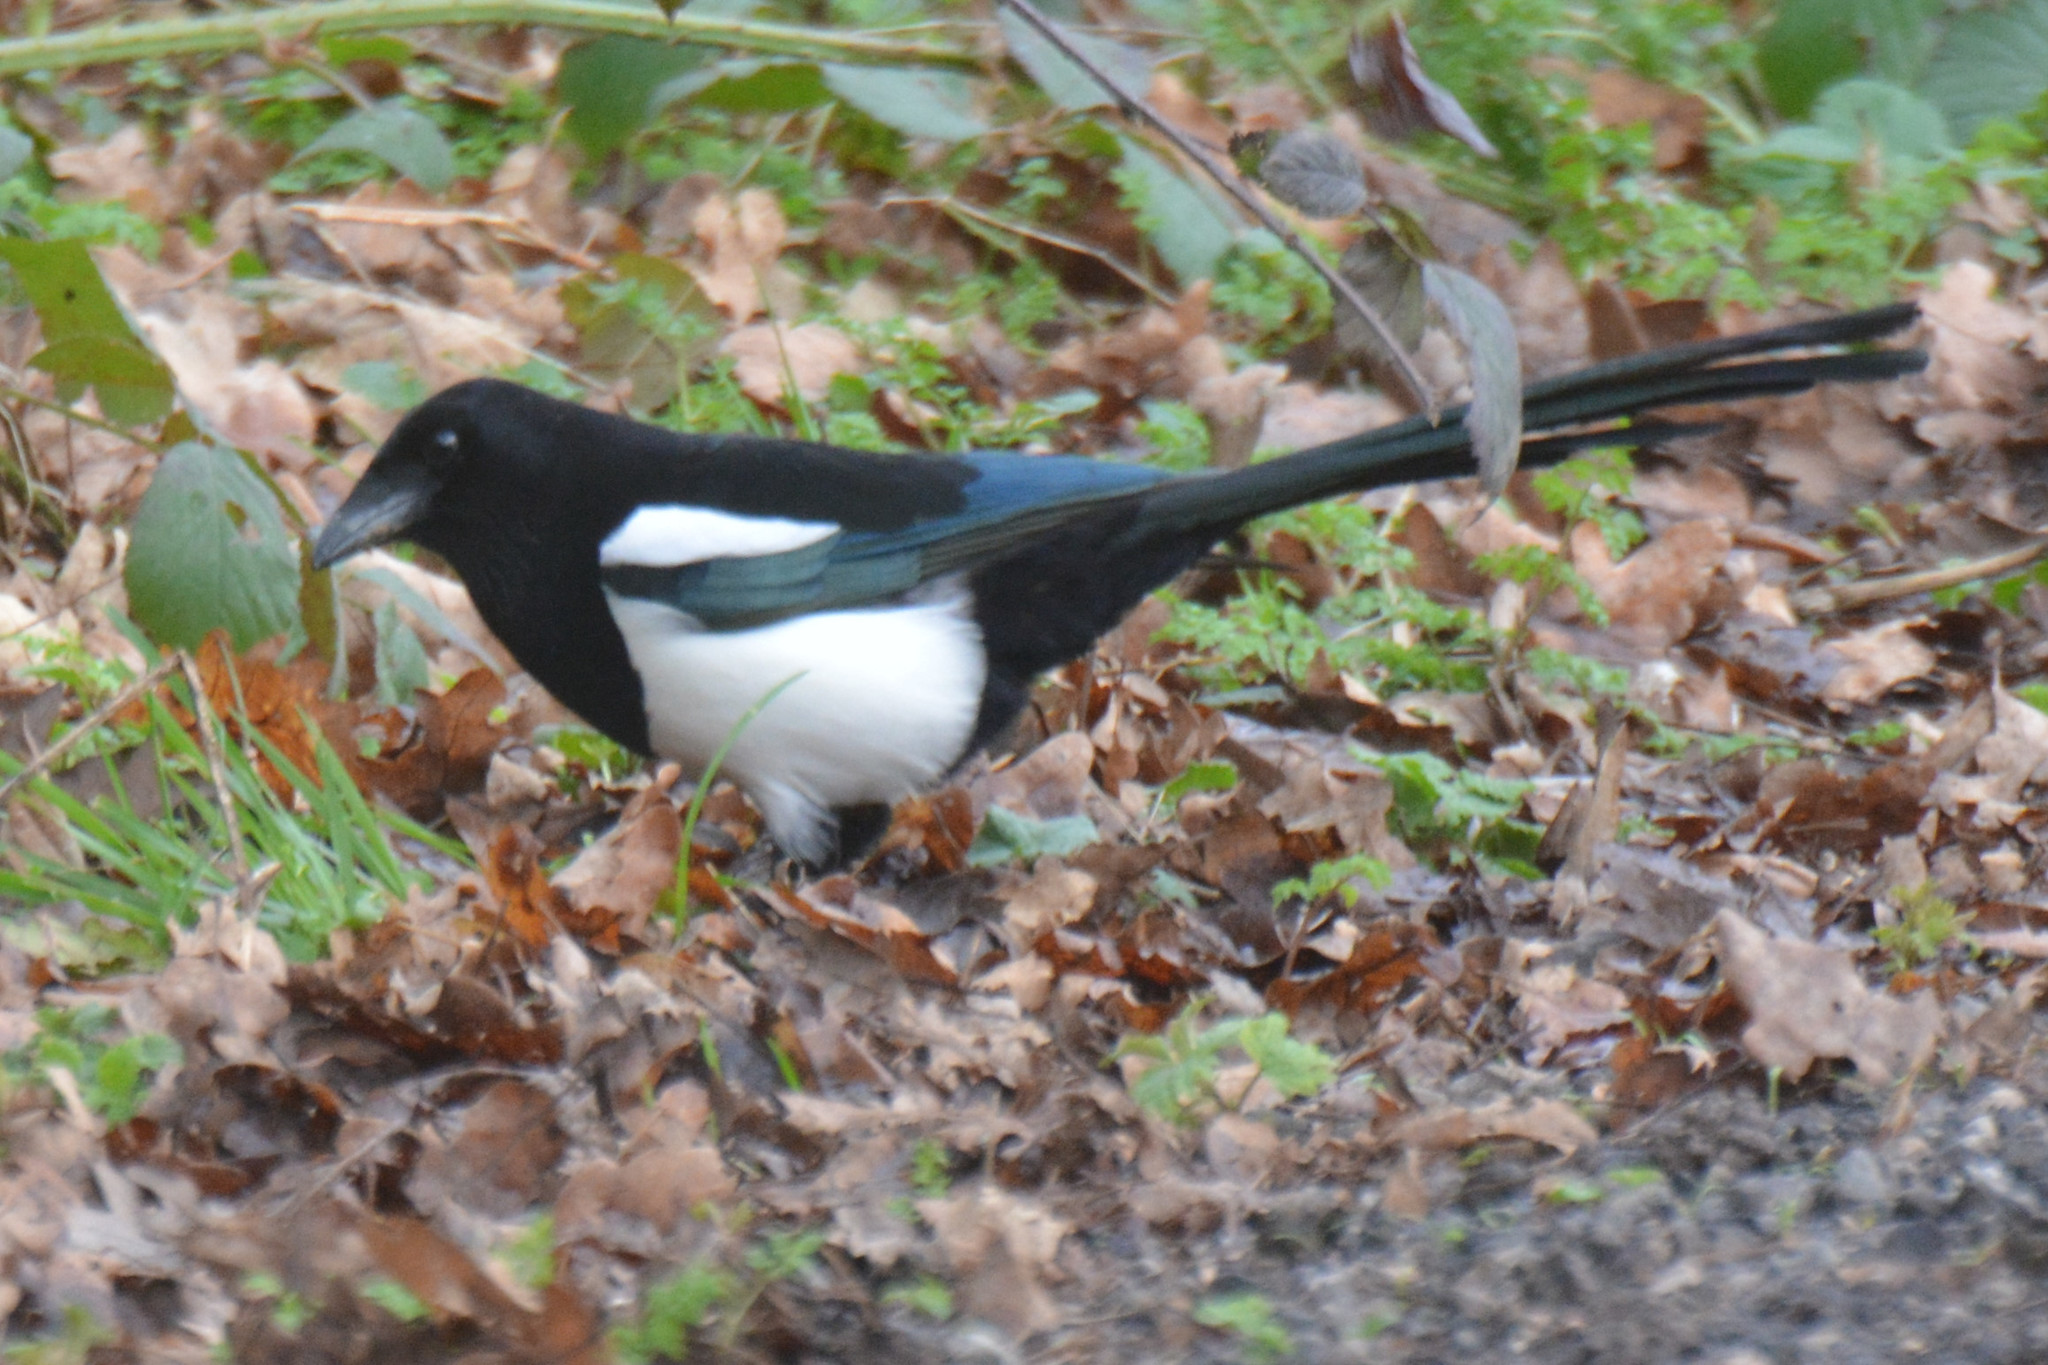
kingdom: Animalia
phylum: Chordata
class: Aves
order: Passeriformes
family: Corvidae
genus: Pica
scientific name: Pica pica
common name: Eurasian magpie
